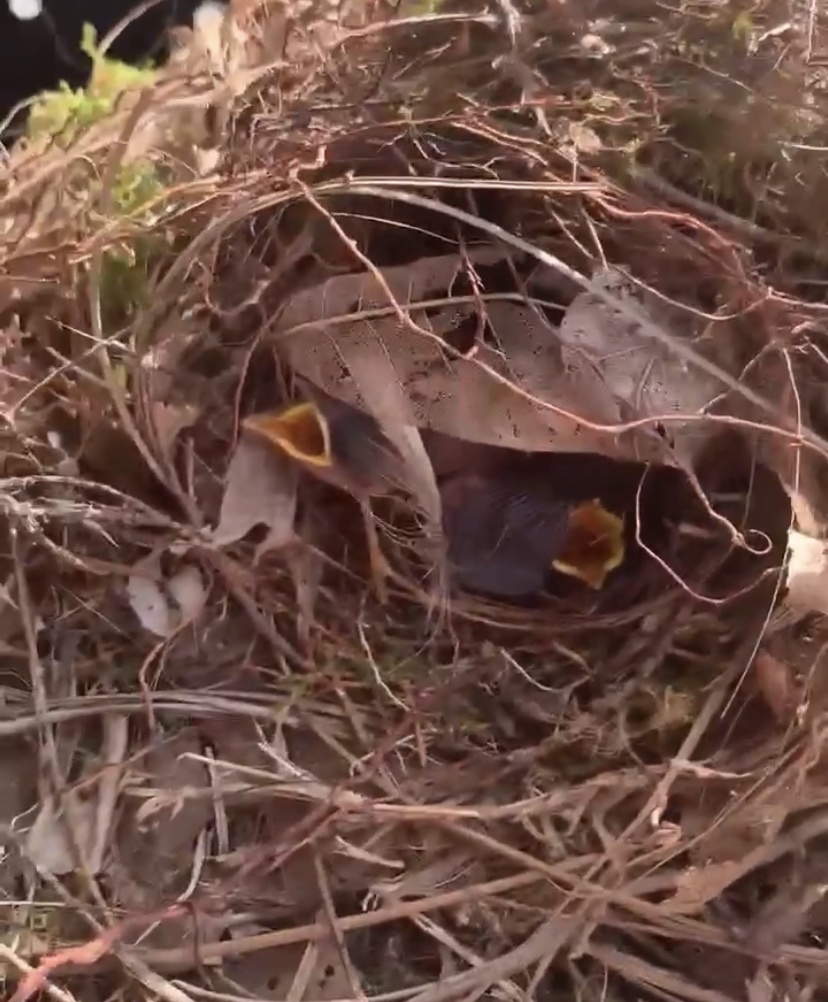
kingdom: Animalia
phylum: Chordata
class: Aves
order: Passeriformes
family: Troglodytidae
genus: Thryothorus
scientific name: Thryothorus ludovicianus
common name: Carolina wren
